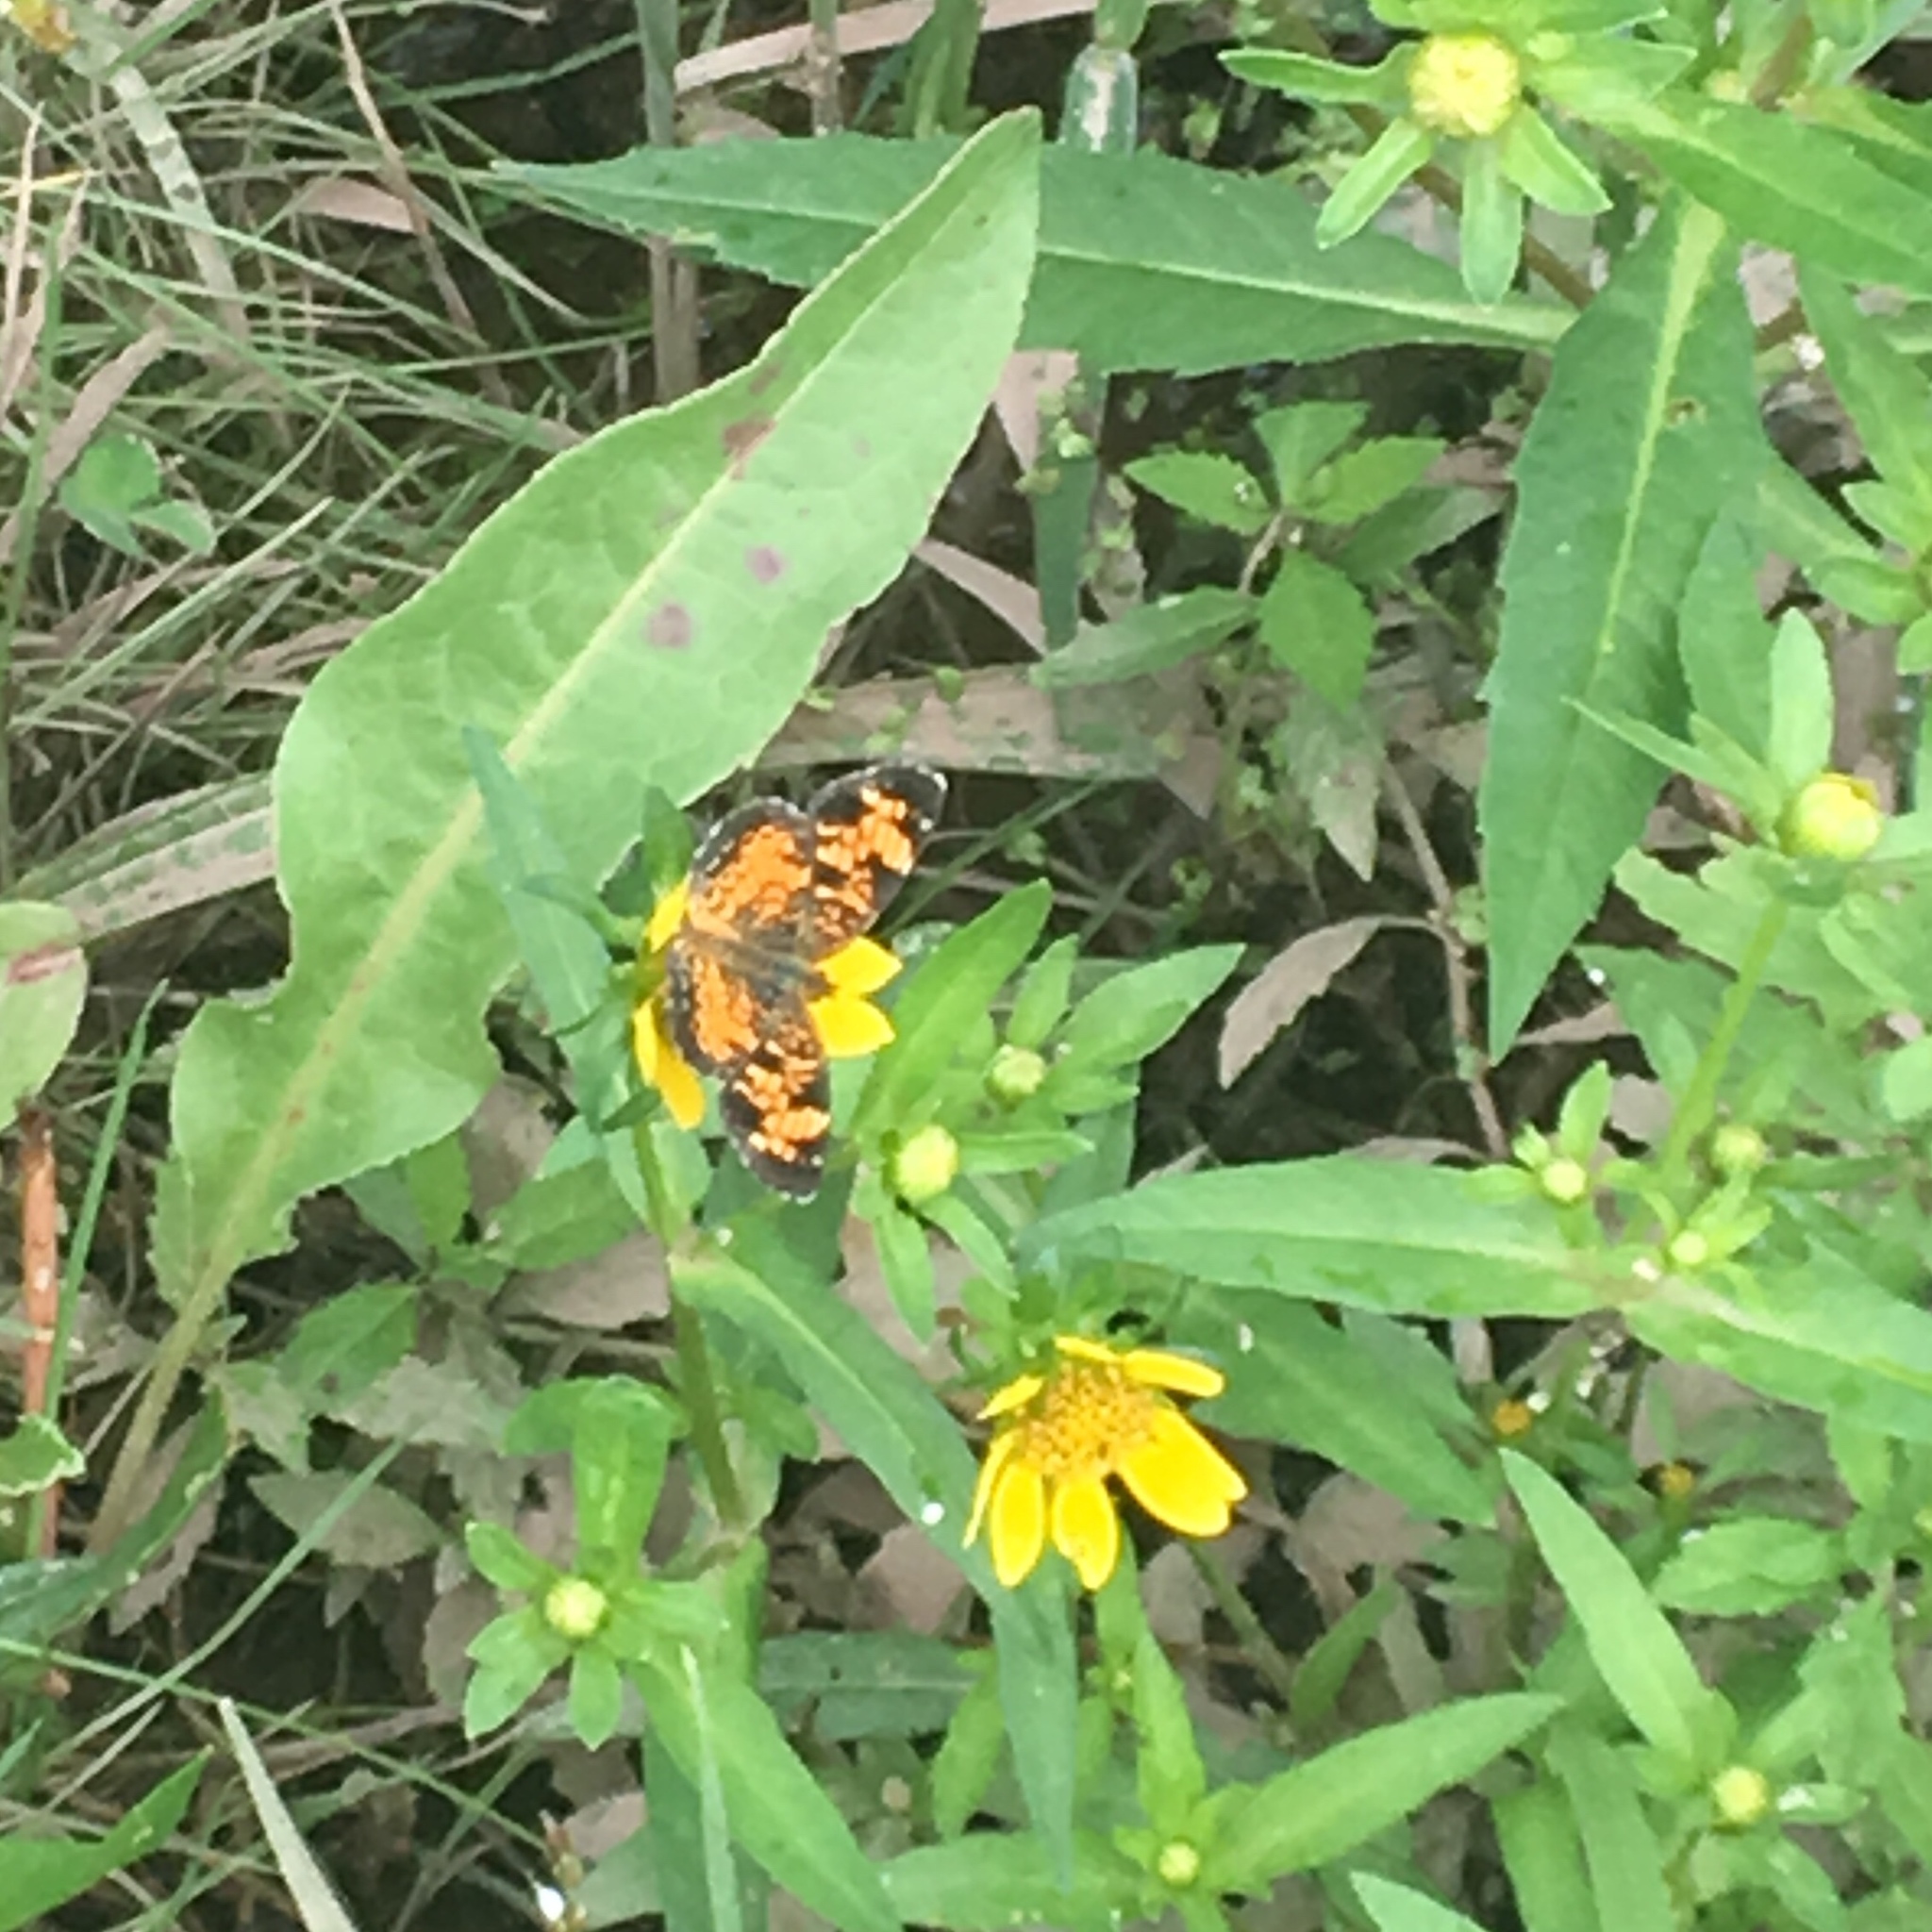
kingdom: Animalia
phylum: Arthropoda
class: Insecta
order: Lepidoptera
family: Nymphalidae
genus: Phyciodes
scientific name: Phyciodes tharos
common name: Pearl crescent
